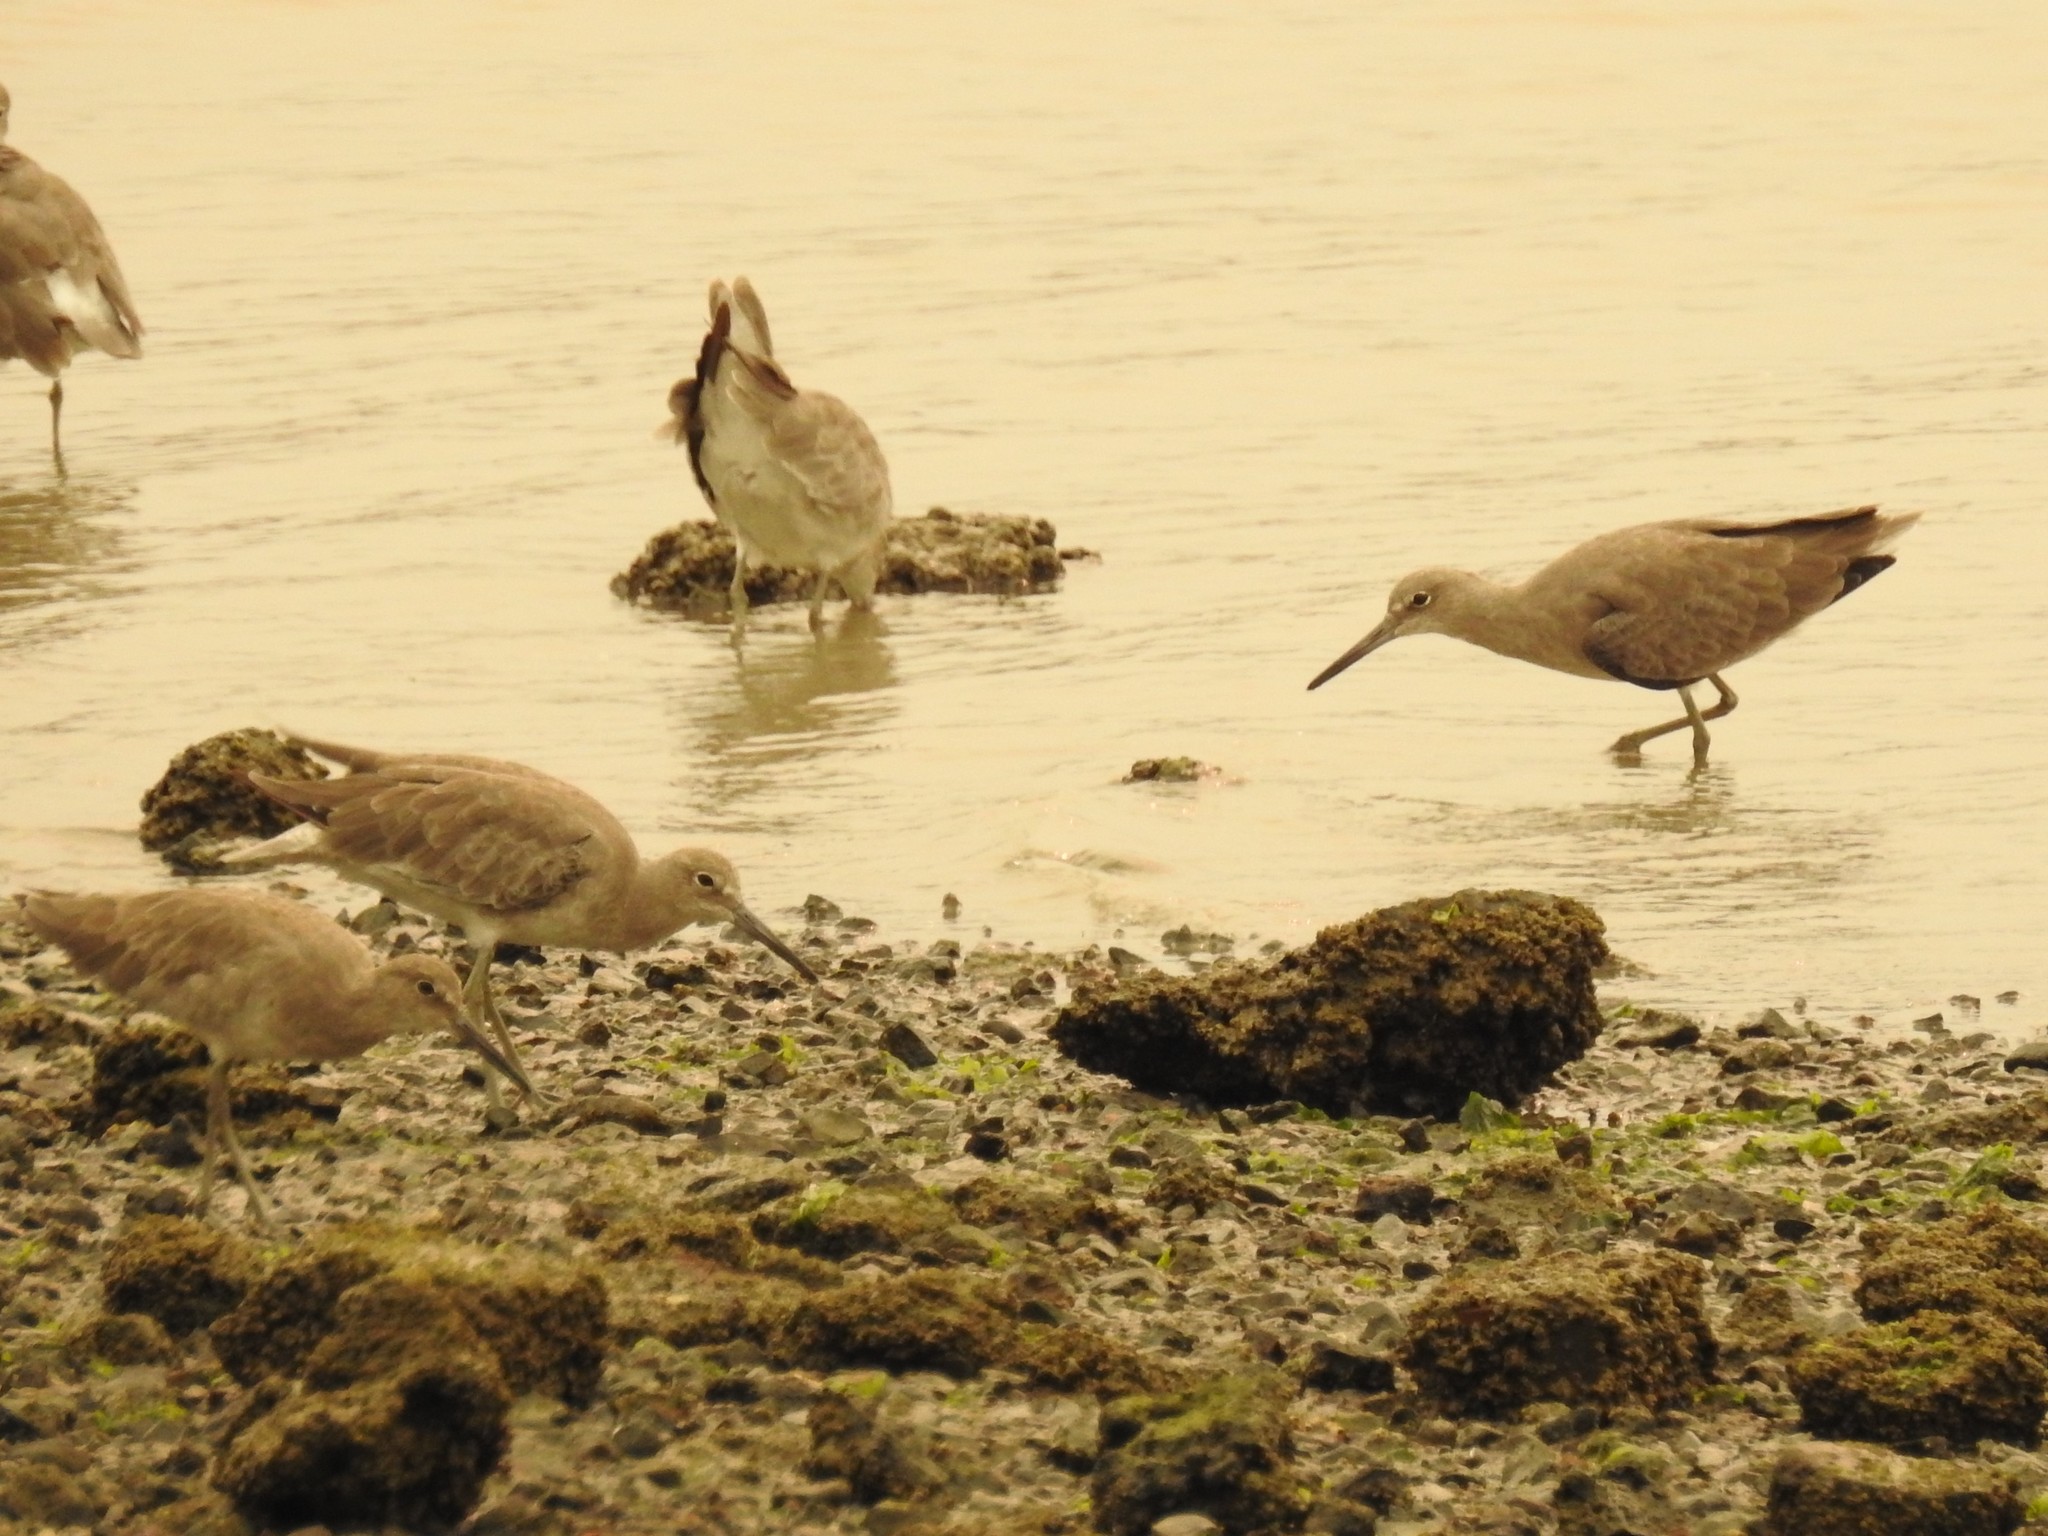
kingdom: Animalia
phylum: Chordata
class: Aves
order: Charadriiformes
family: Scolopacidae
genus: Tringa
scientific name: Tringa semipalmata
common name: Willet
